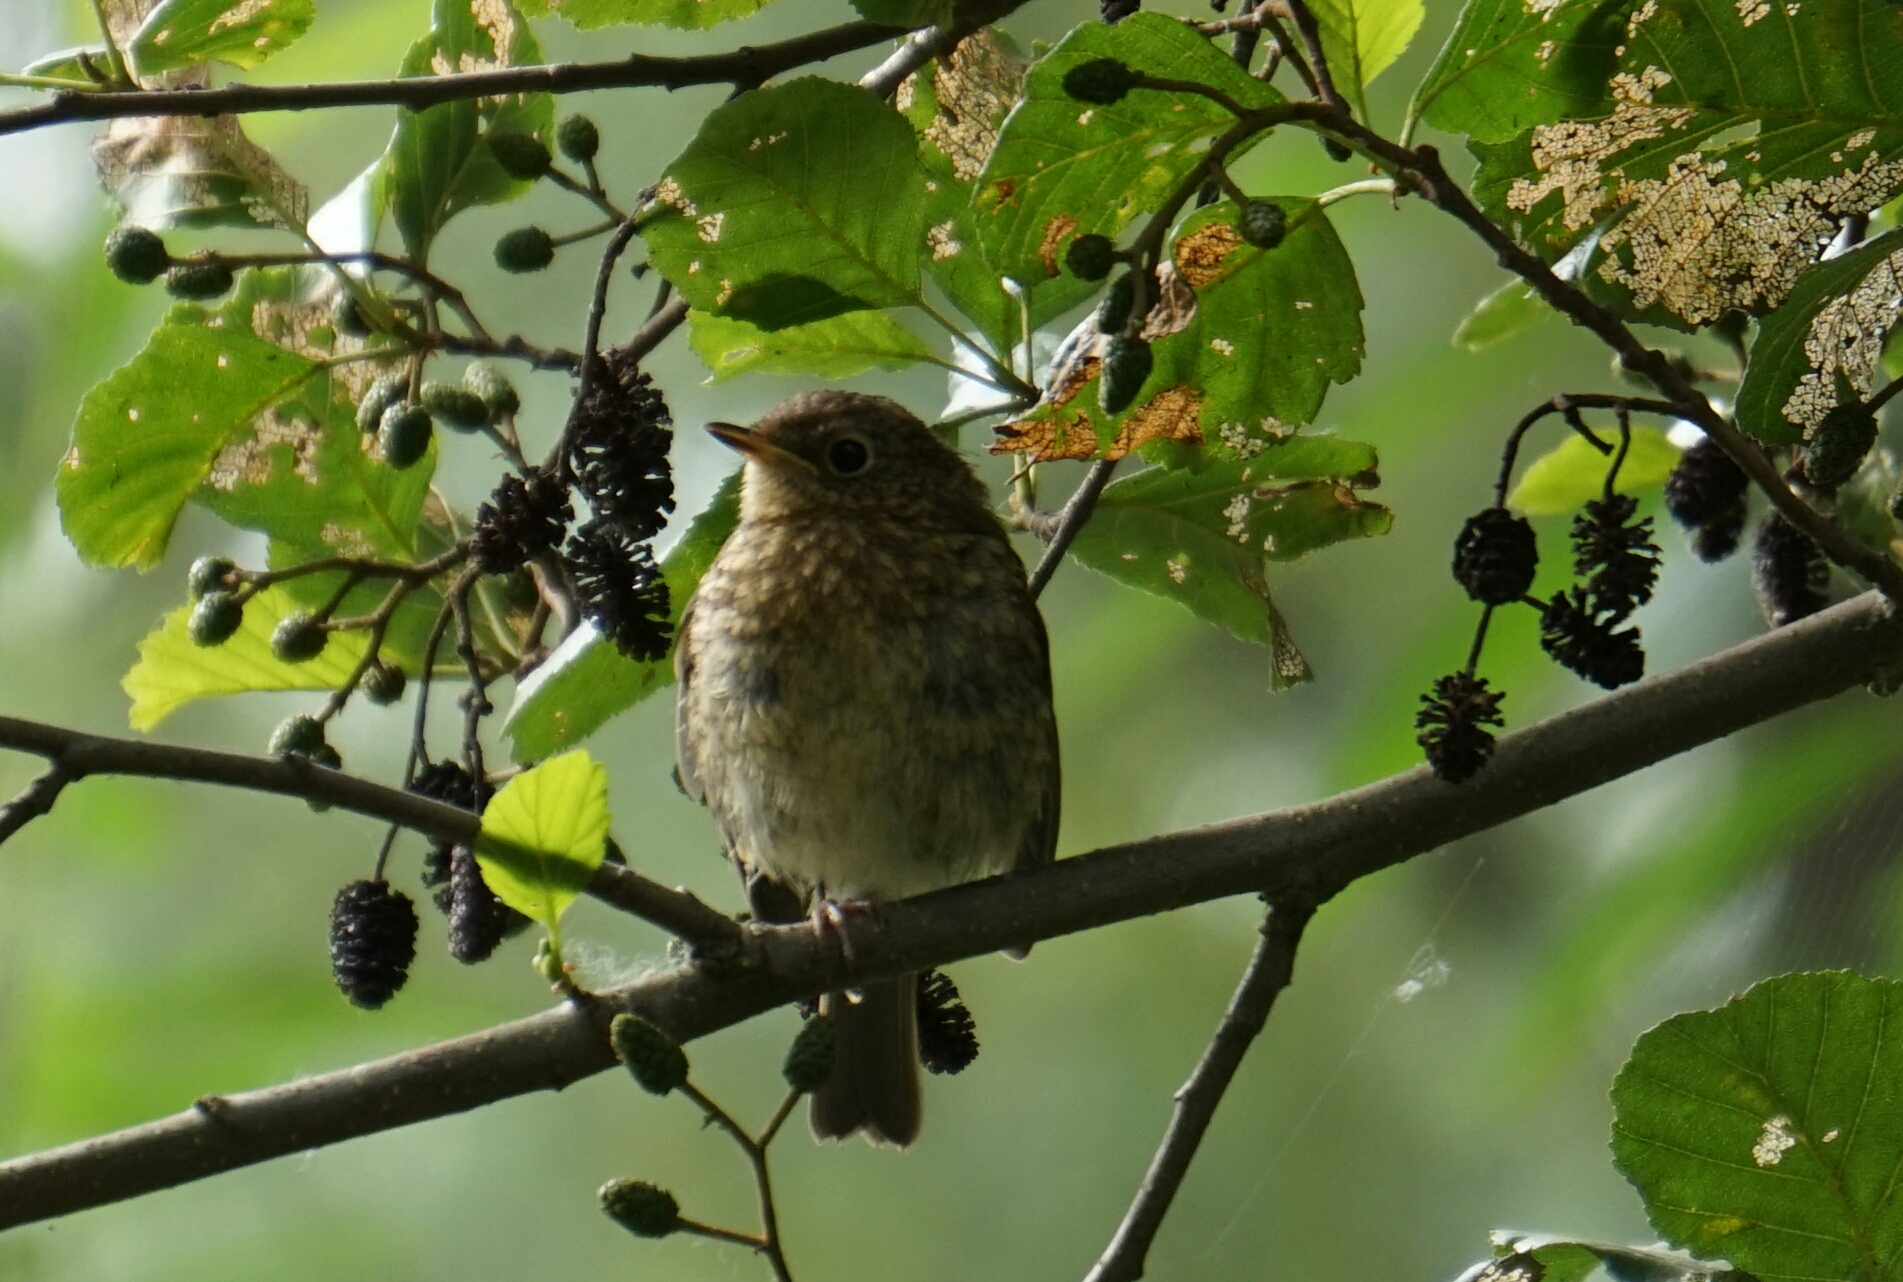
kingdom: Animalia
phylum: Chordata
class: Aves
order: Passeriformes
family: Muscicapidae
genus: Erithacus
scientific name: Erithacus rubecula
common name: European robin
